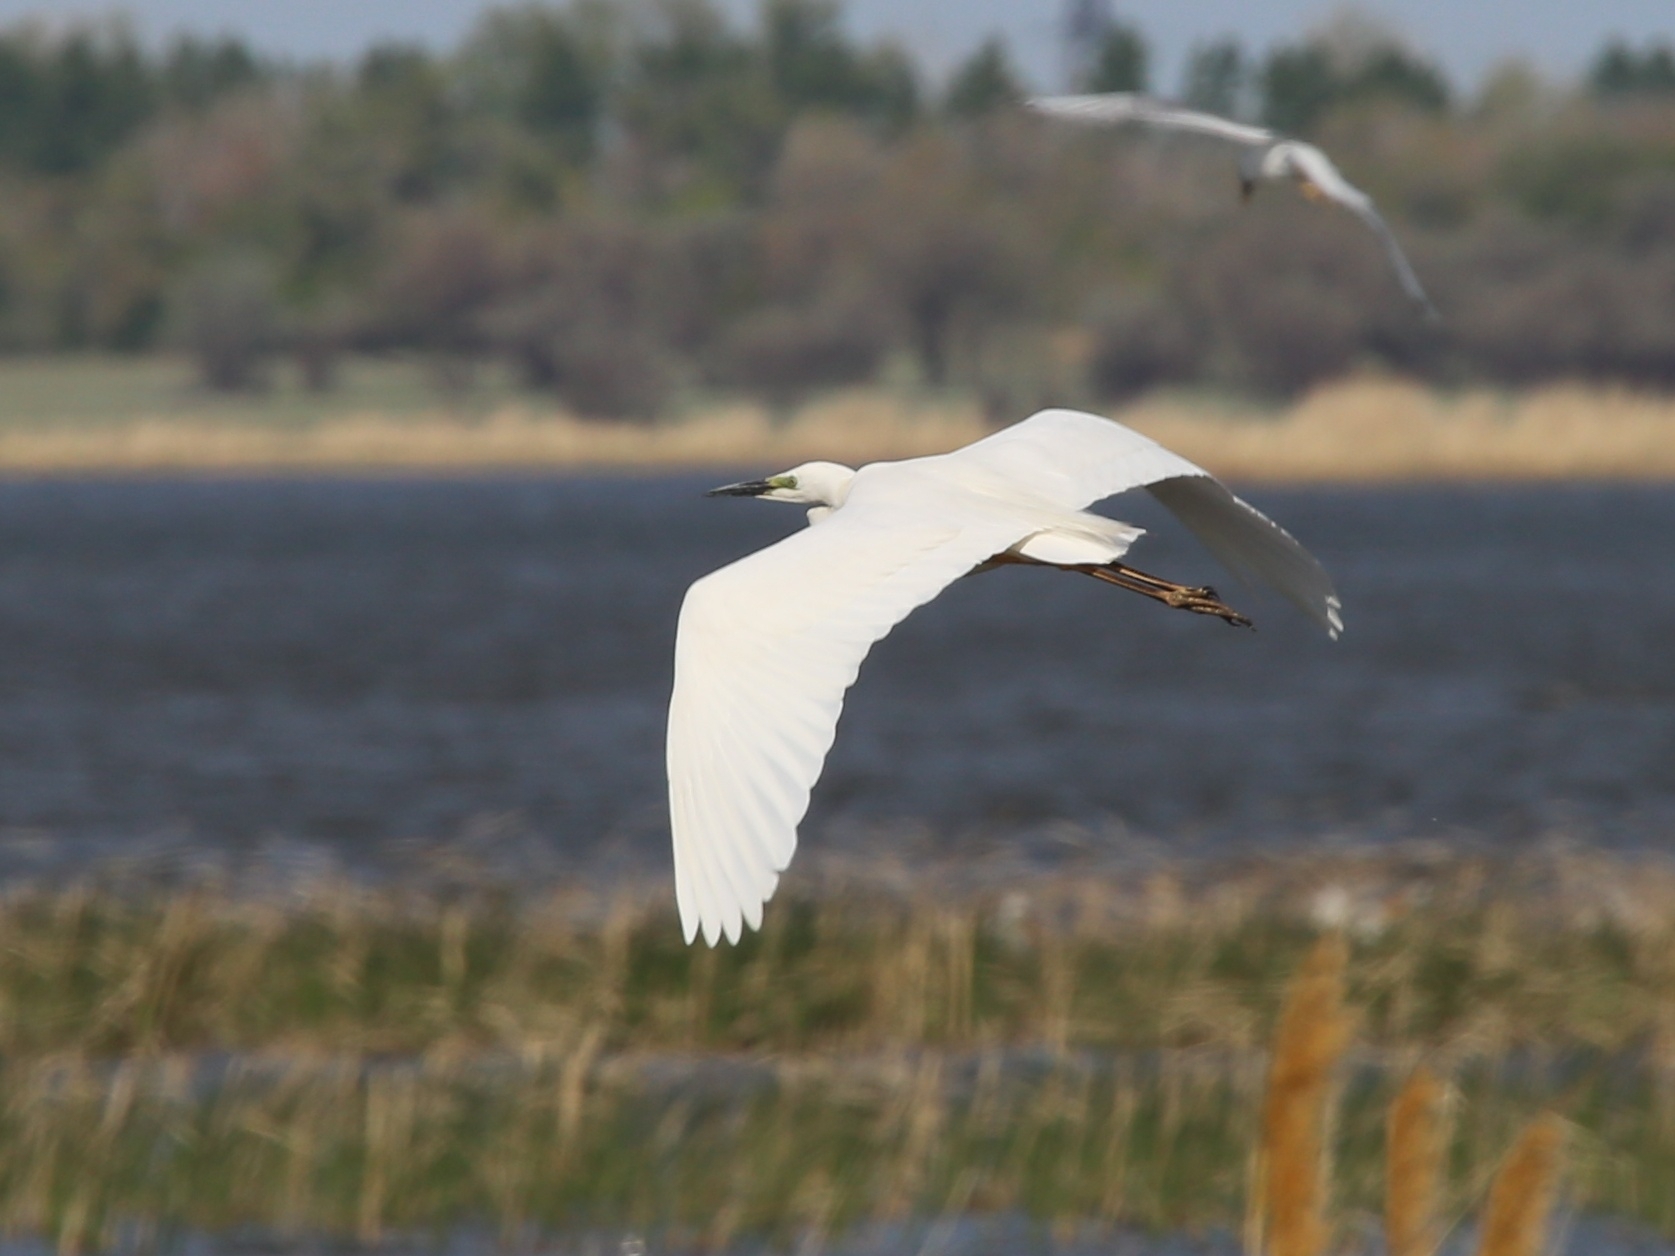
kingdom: Animalia
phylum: Chordata
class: Aves
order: Pelecaniformes
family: Ardeidae
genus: Ardea
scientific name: Ardea alba
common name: Great egret
